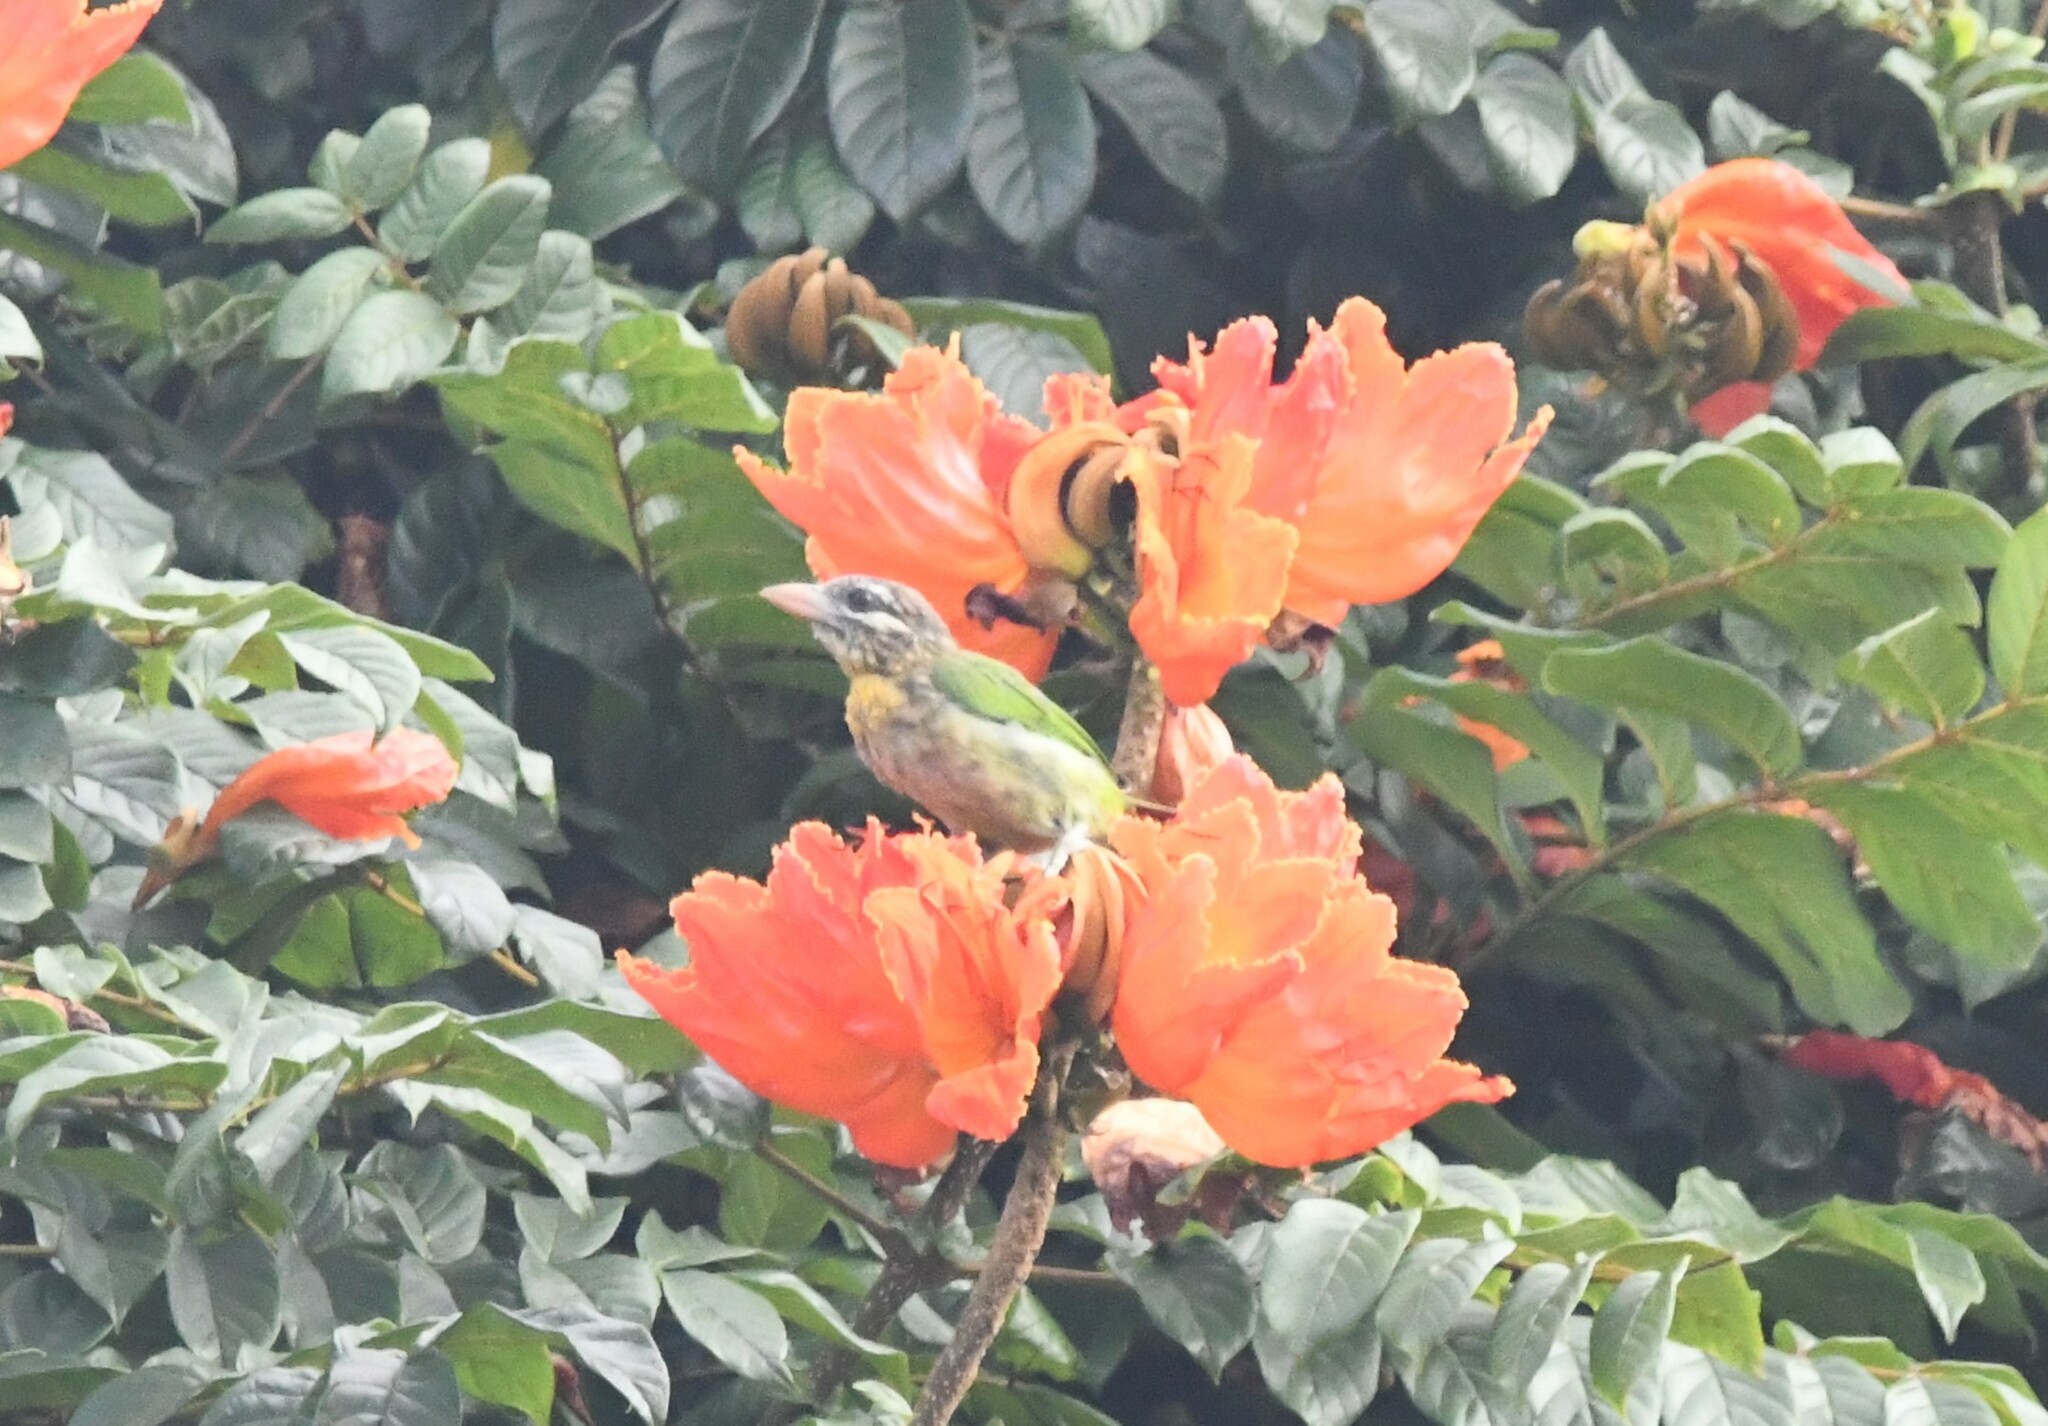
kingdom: Animalia
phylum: Chordata
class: Aves
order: Piciformes
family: Megalaimidae
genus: Psilopogon
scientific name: Psilopogon viridis
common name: White-cheeked barbet
